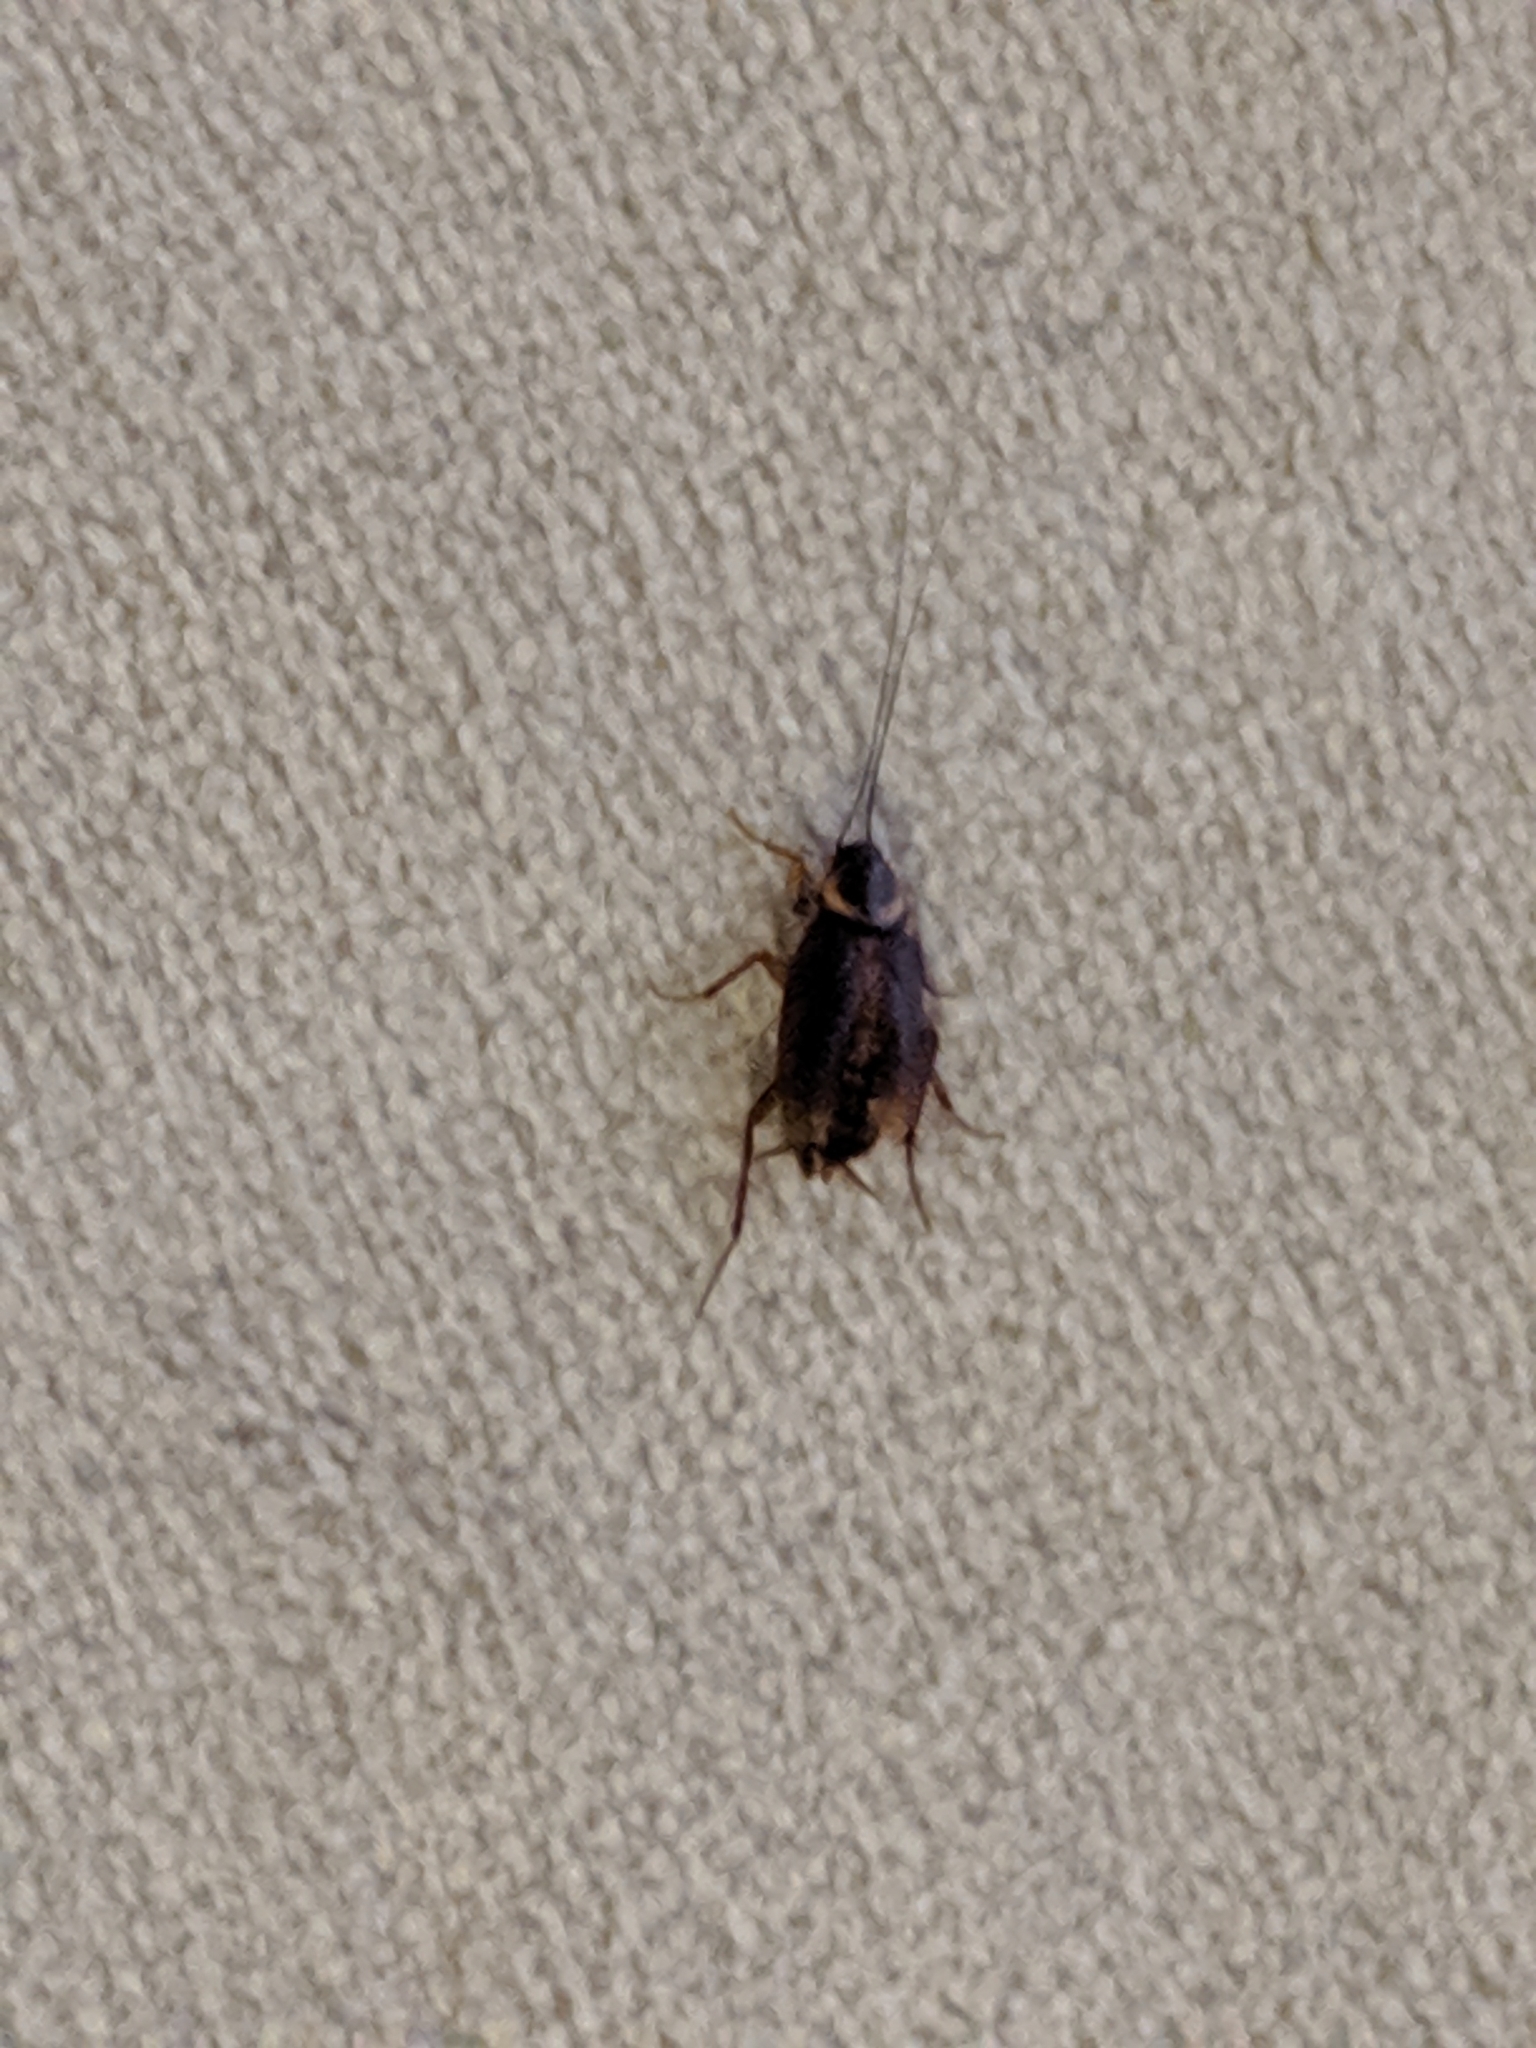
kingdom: Animalia
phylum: Arthropoda
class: Insecta
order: Blattodea
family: Blattidae
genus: Periplaneta
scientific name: Periplaneta americana
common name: American cockroach
